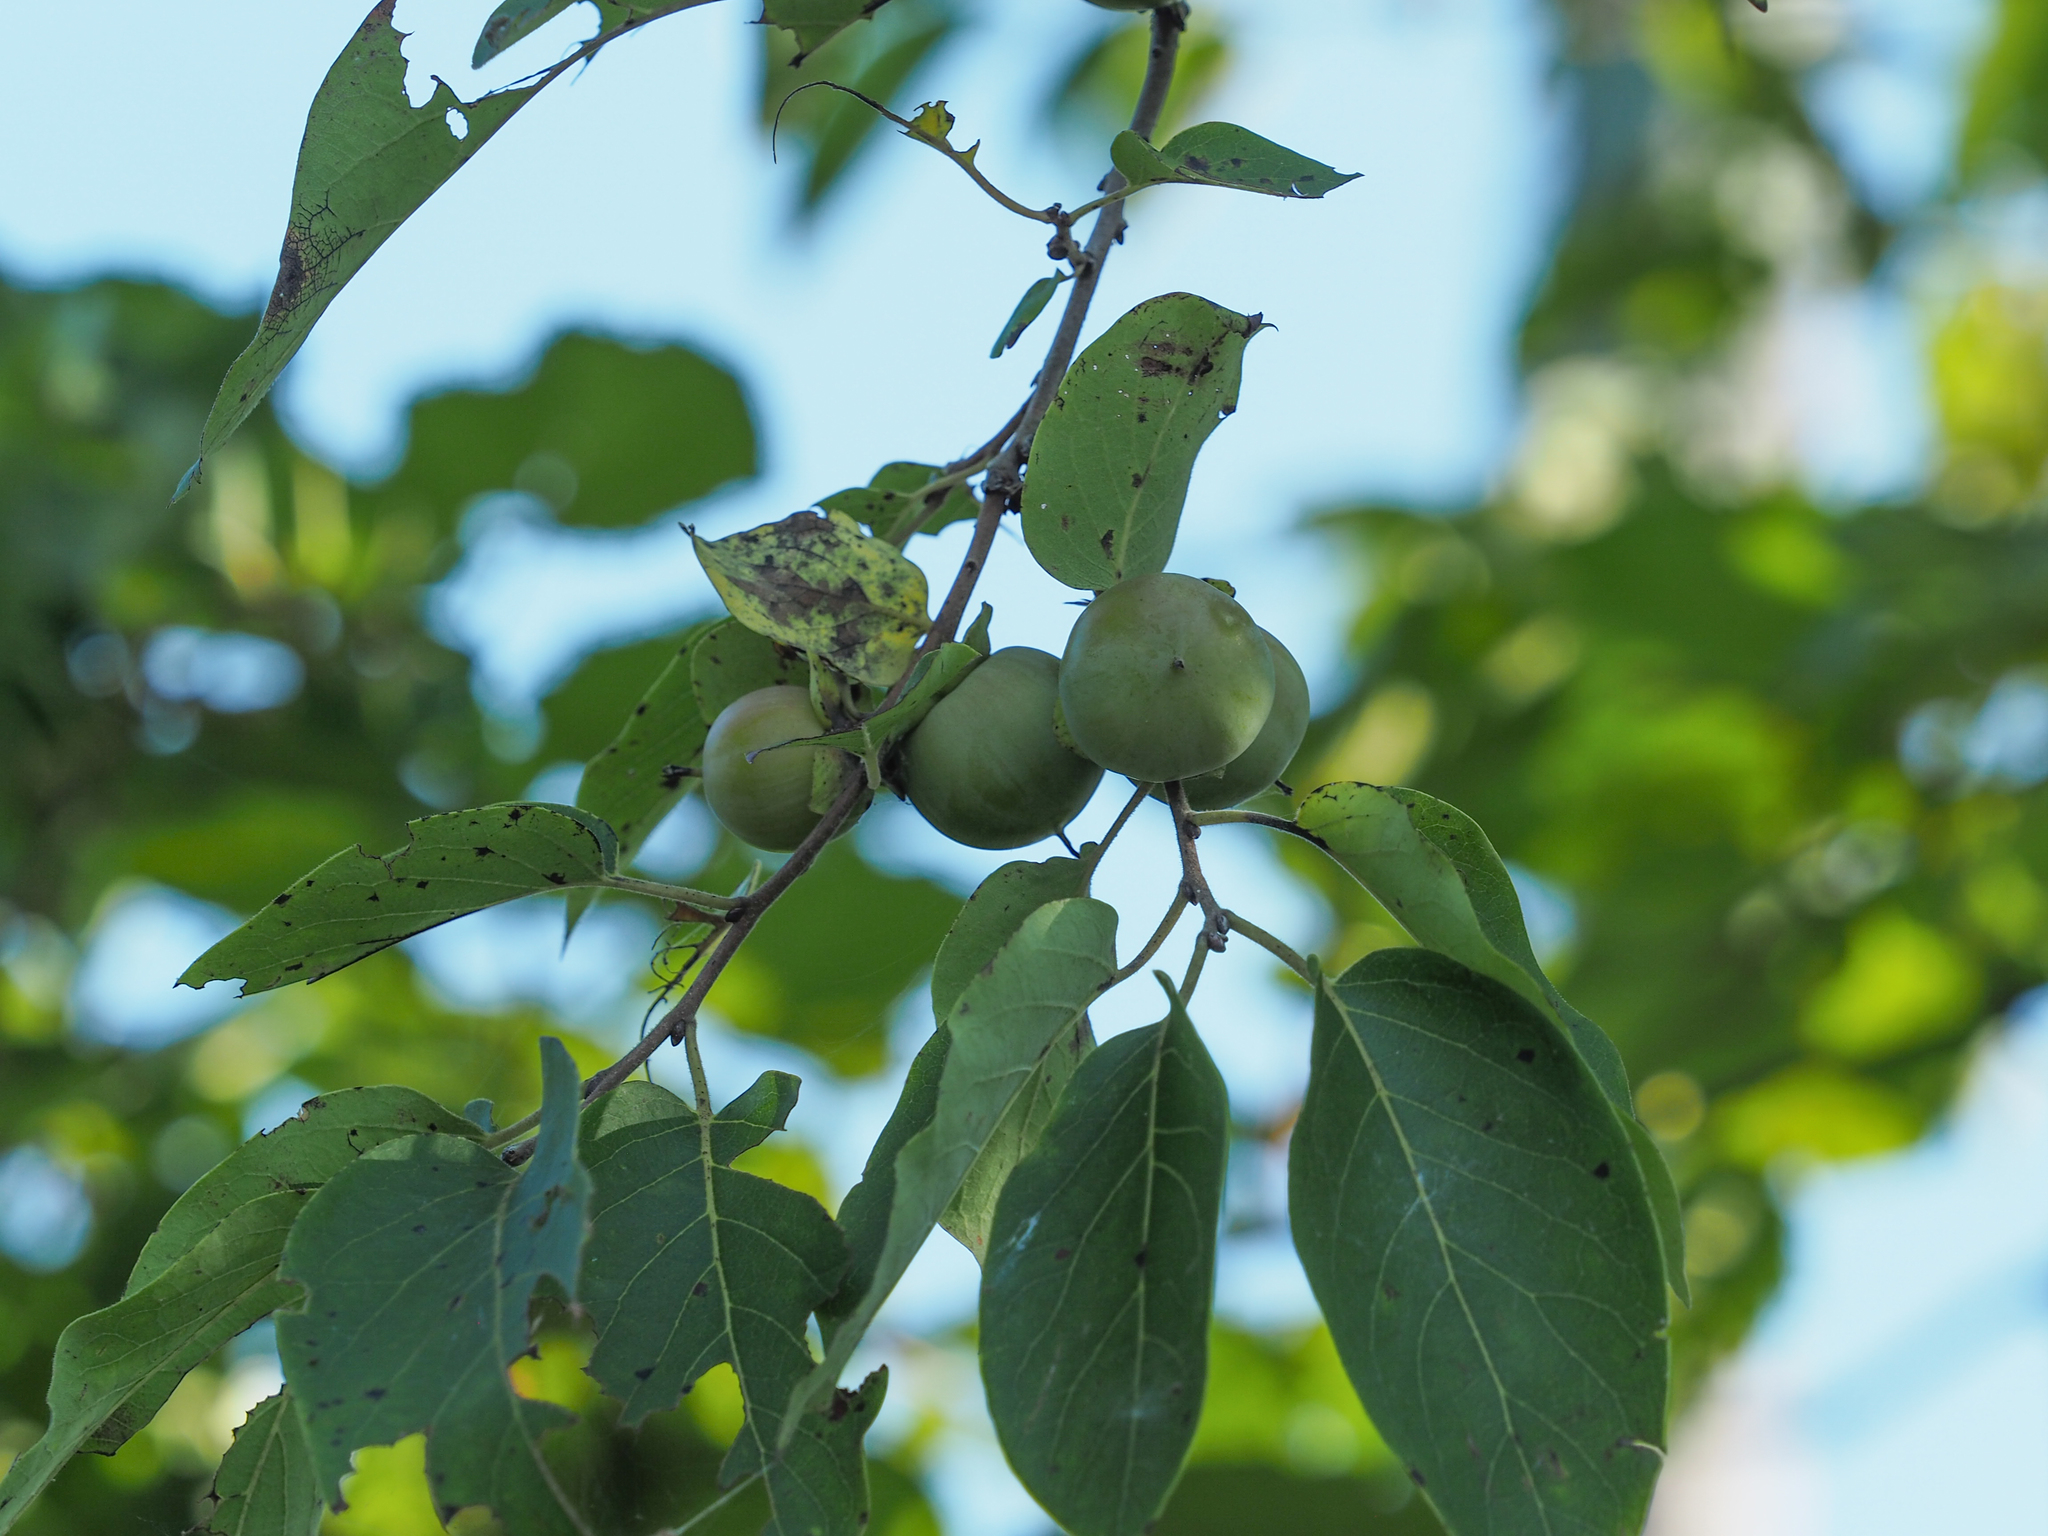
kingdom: Plantae
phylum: Tracheophyta
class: Magnoliopsida
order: Ericales
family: Ebenaceae
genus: Diospyros
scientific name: Diospyros virginiana
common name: Persimmon
